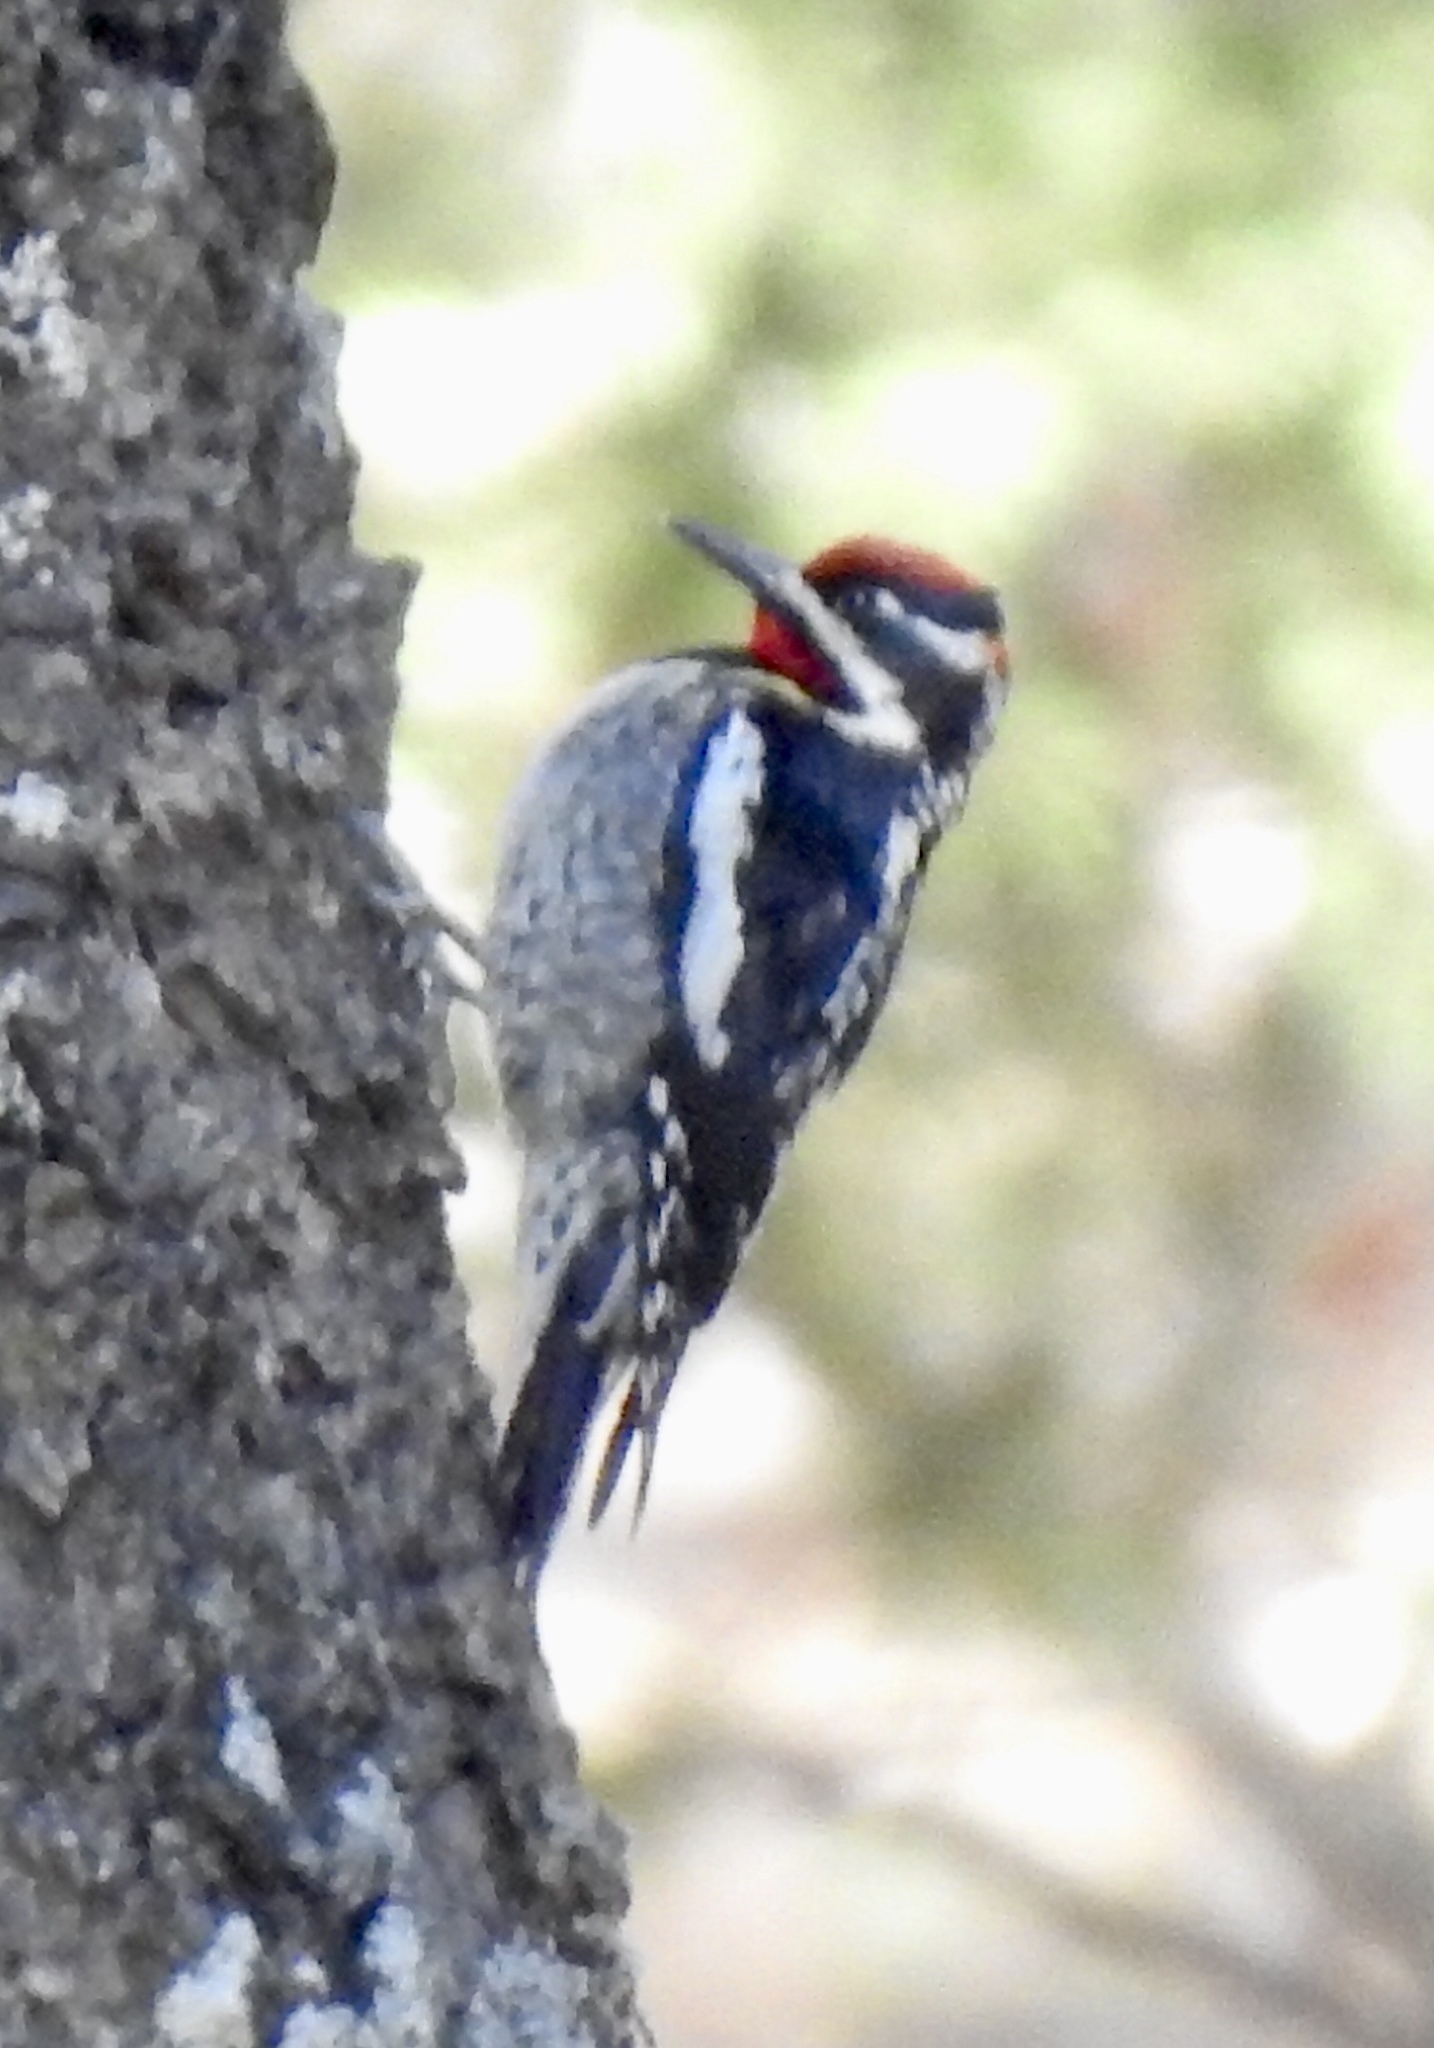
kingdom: Animalia
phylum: Chordata
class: Aves
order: Piciformes
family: Picidae
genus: Sphyrapicus
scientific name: Sphyrapicus nuchalis
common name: Red-naped sapsucker
